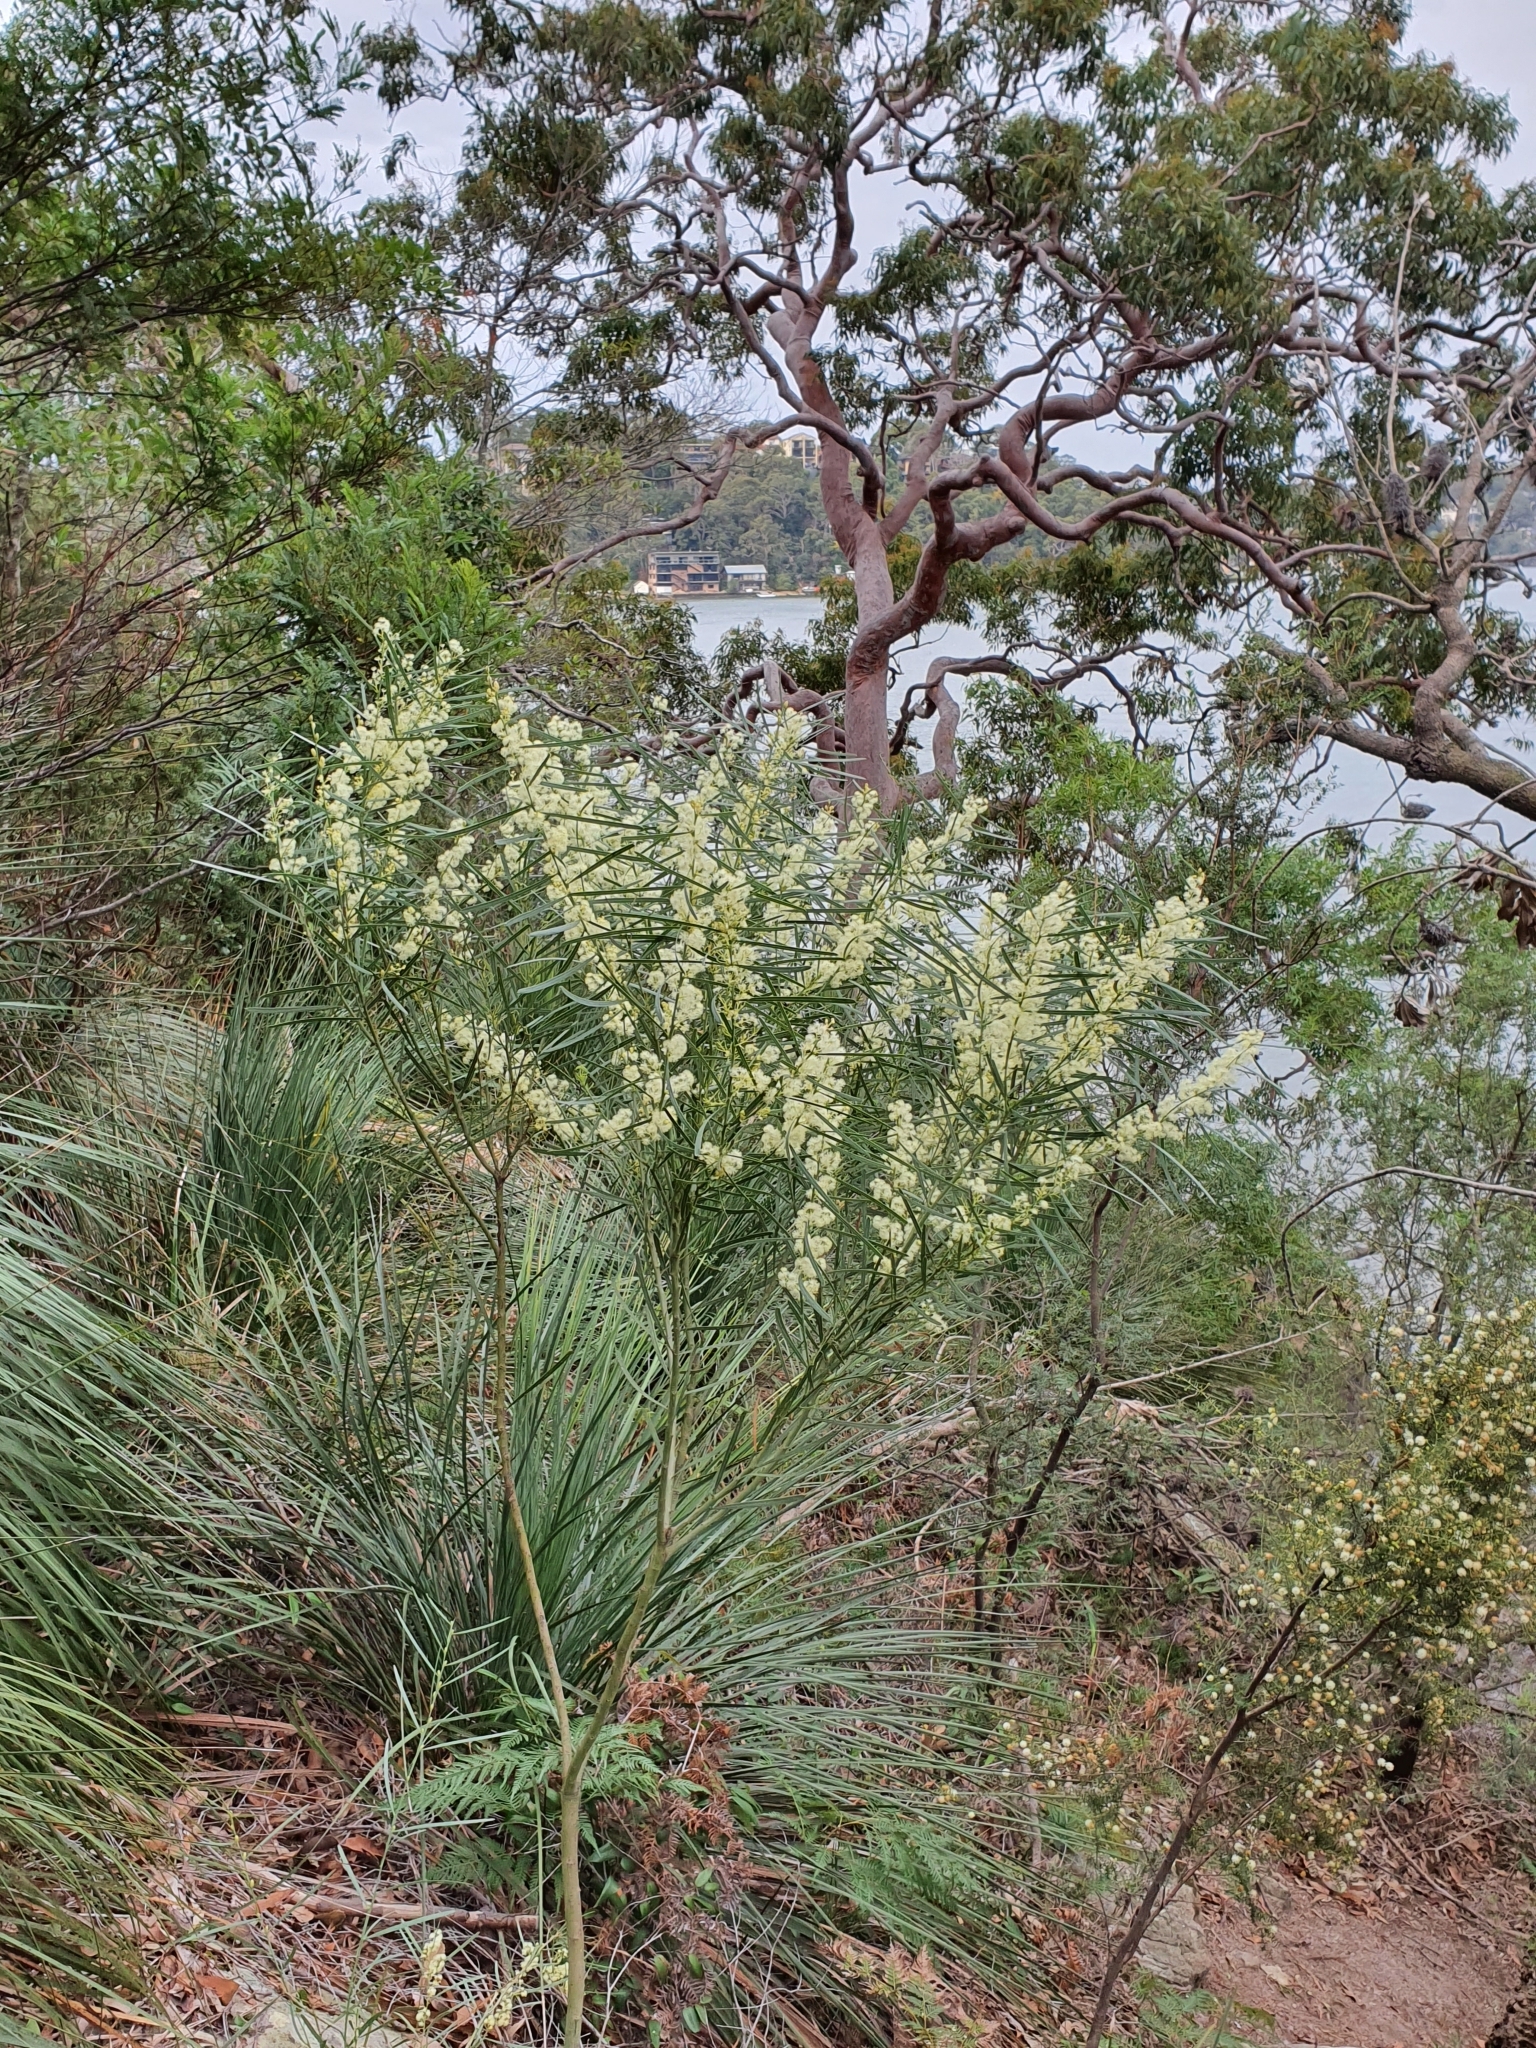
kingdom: Plantae
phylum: Tracheophyta
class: Magnoliopsida
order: Fabales
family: Fabaceae
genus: Acacia
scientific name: Acacia suaveolens
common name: Sweet acacia
